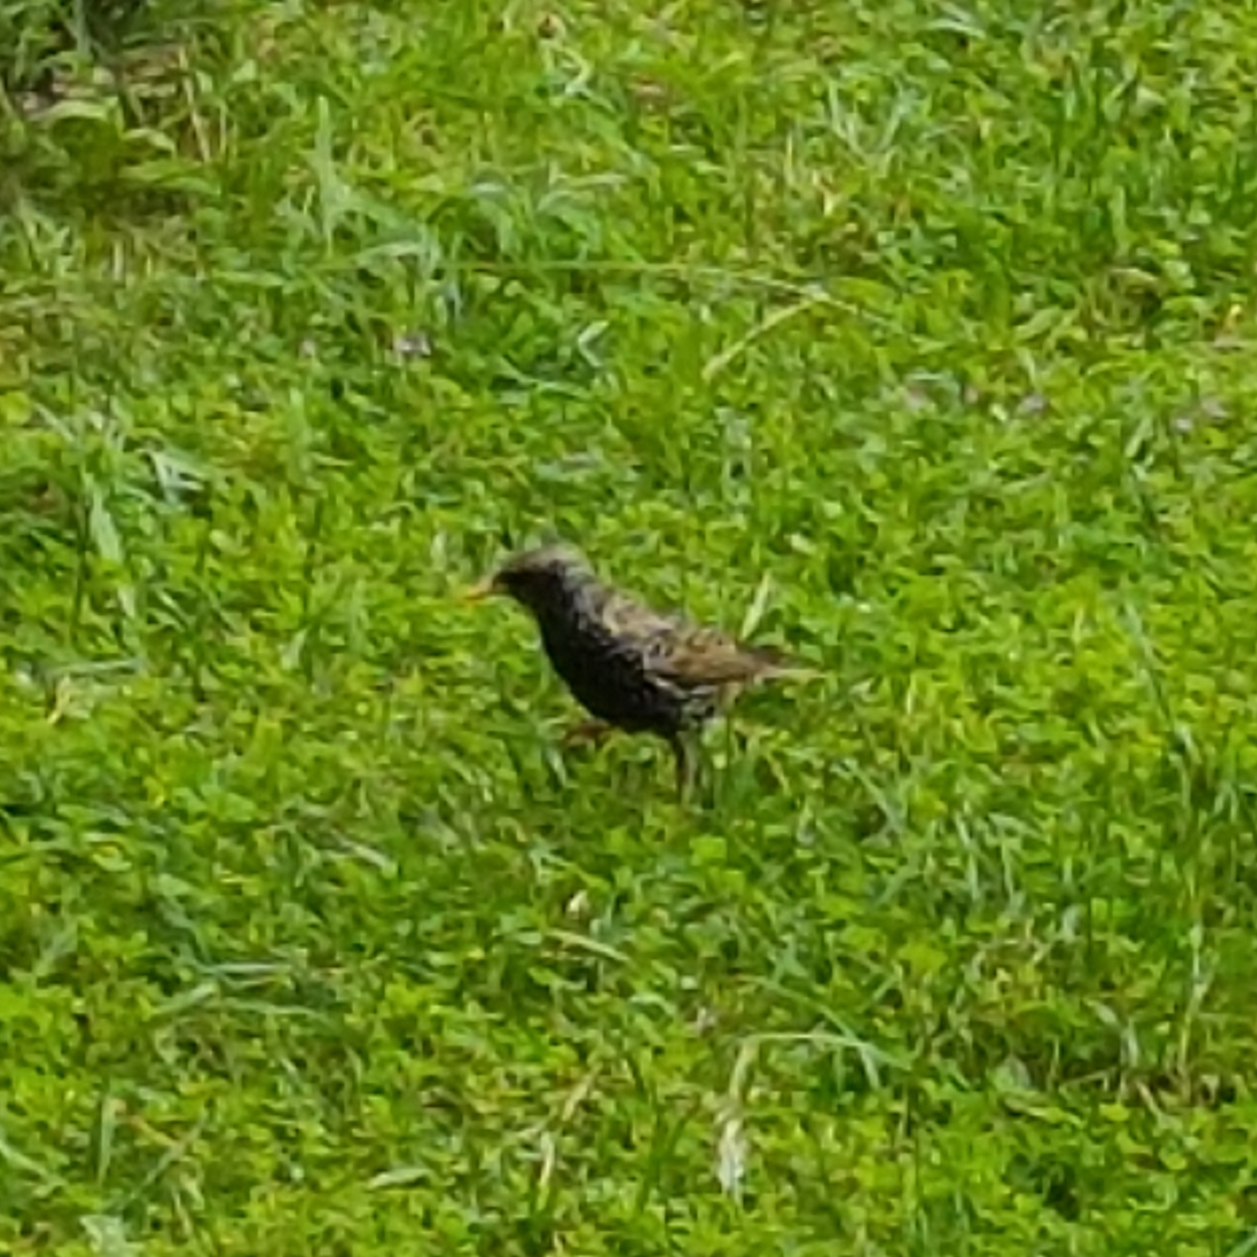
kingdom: Animalia
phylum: Chordata
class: Aves
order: Passeriformes
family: Sturnidae
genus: Sturnus
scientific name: Sturnus vulgaris
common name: Common starling
